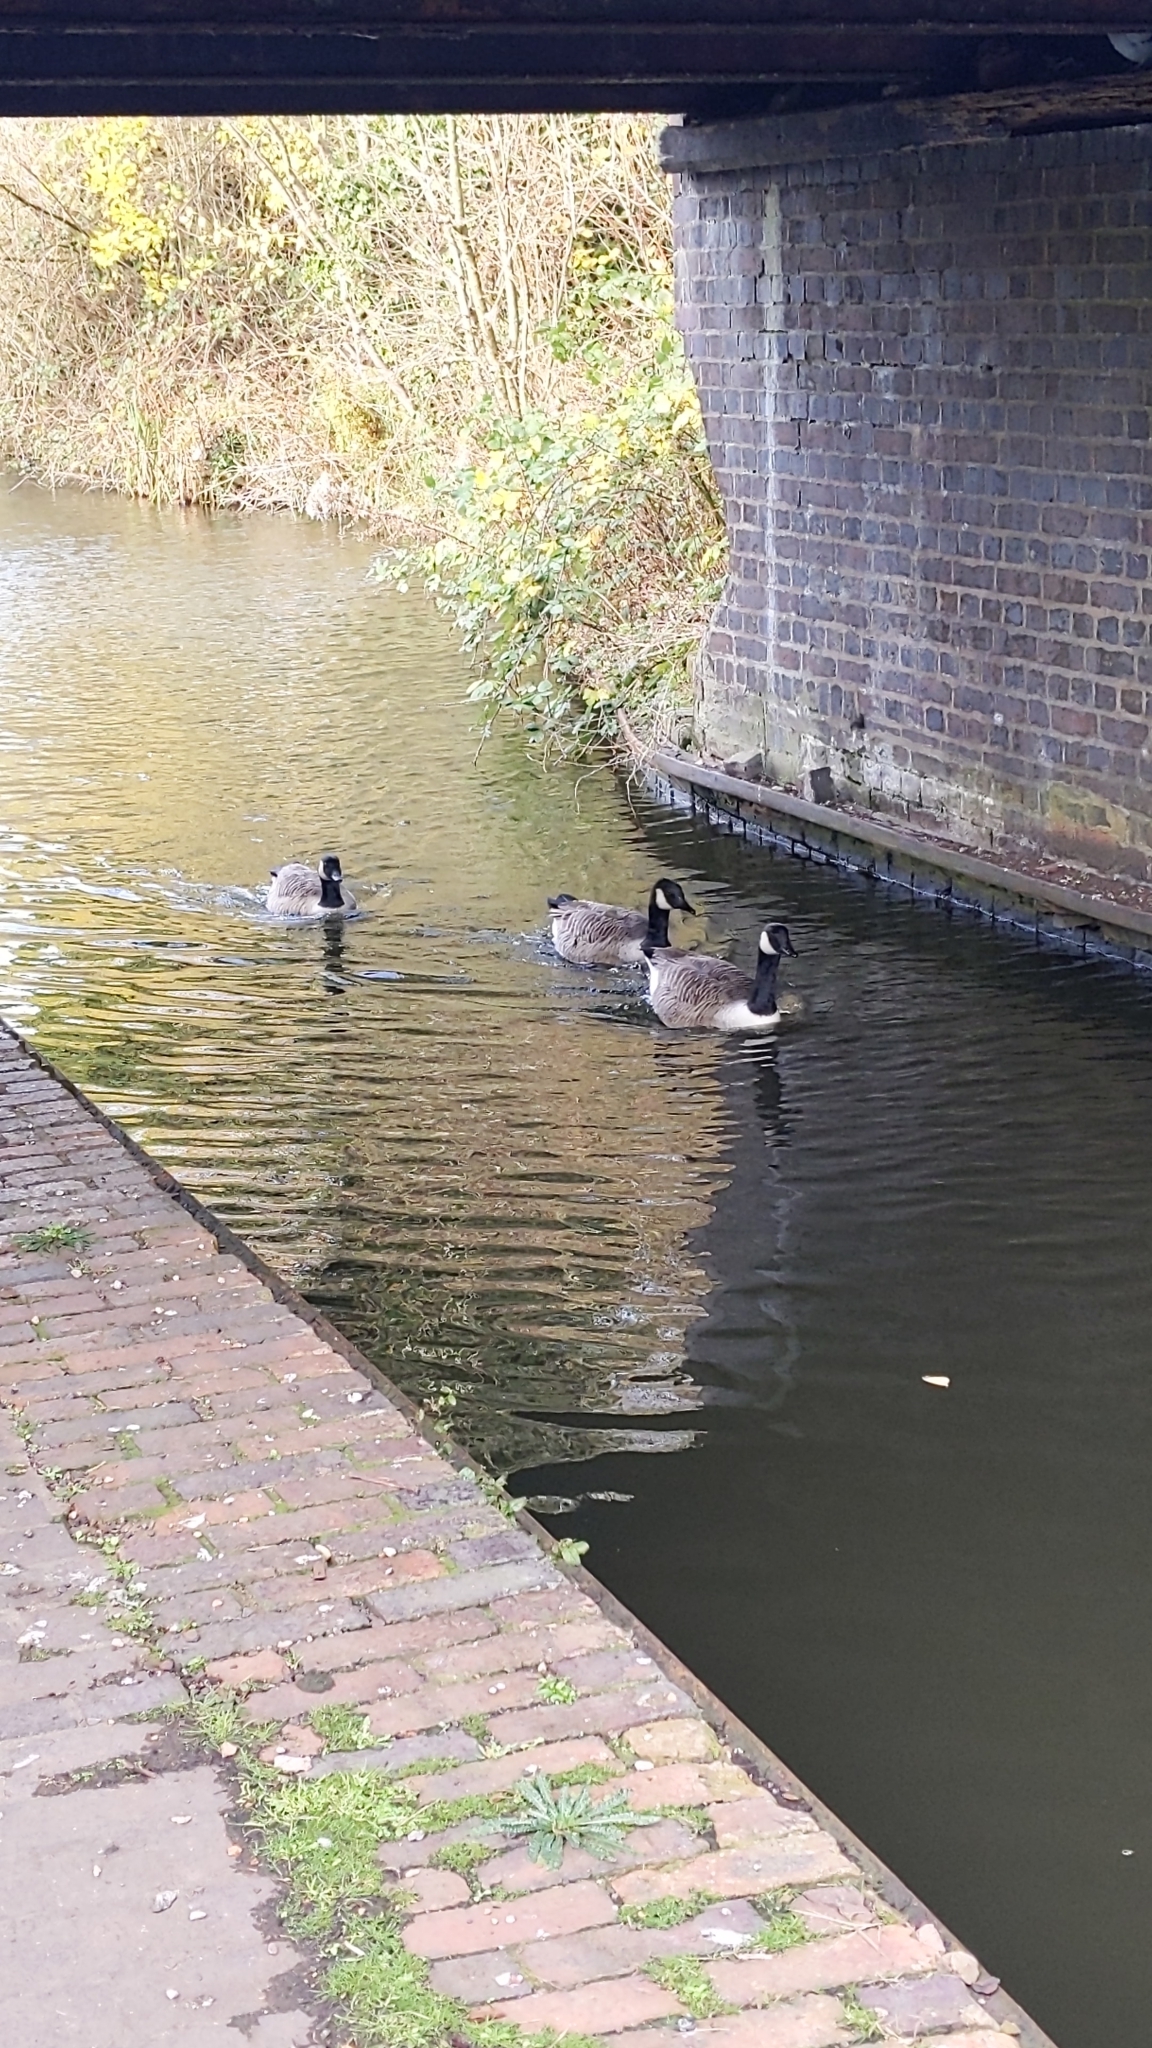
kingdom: Animalia
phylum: Chordata
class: Aves
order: Anseriformes
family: Anatidae
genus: Branta
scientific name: Branta canadensis
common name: Canada goose
